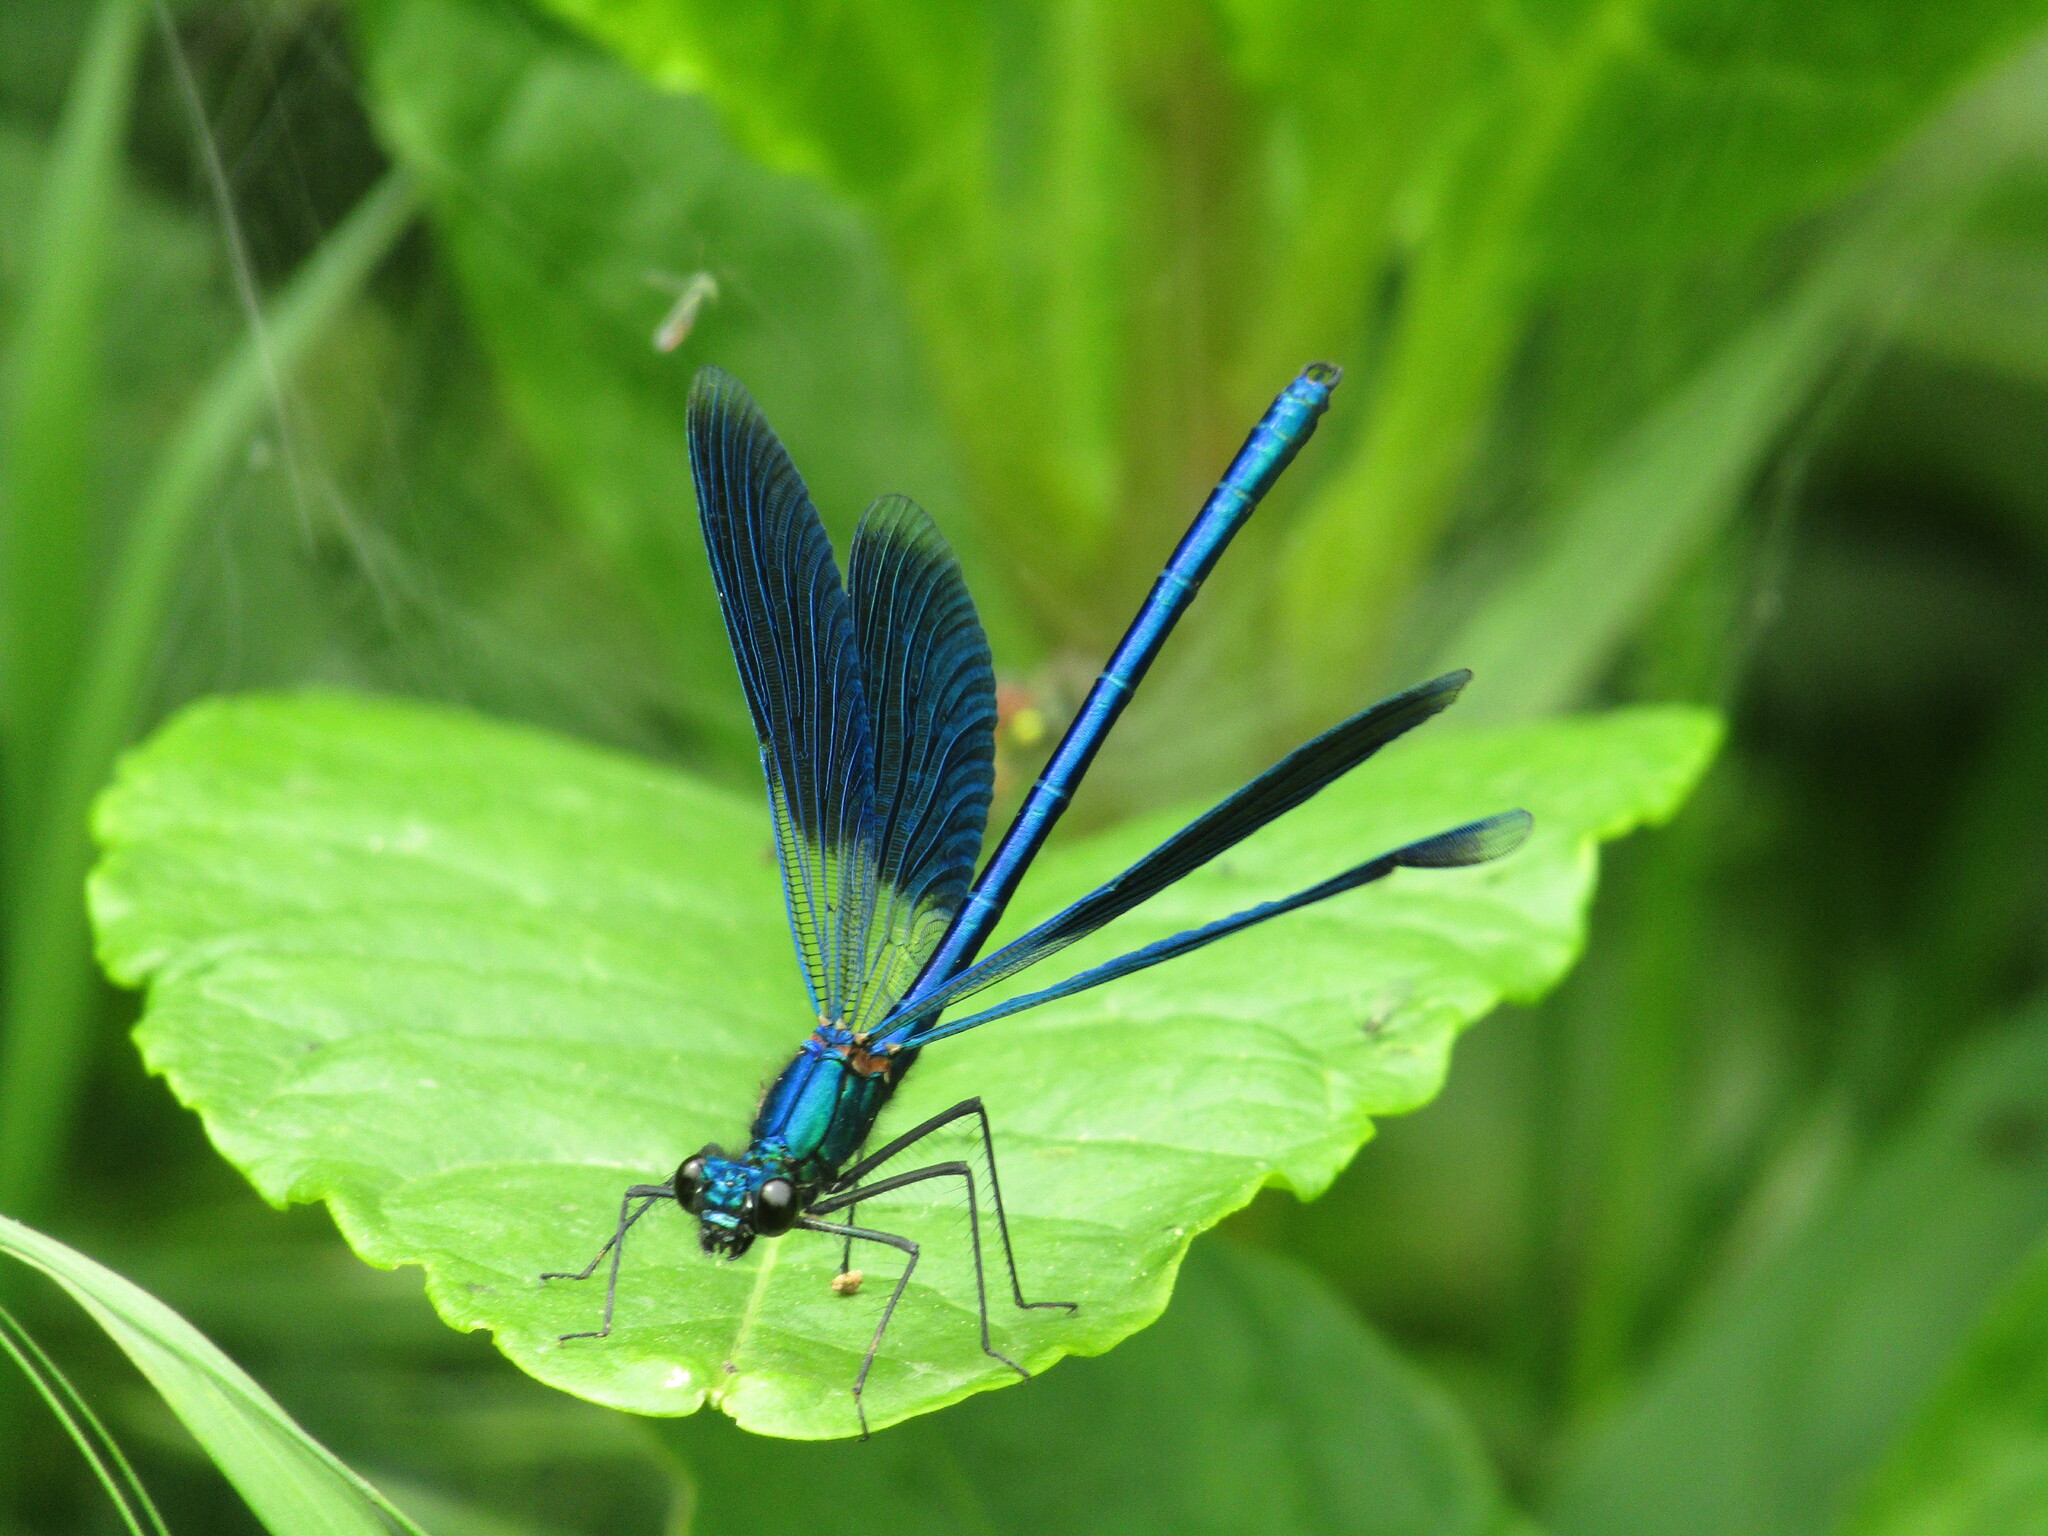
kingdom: Animalia
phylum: Arthropoda
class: Insecta
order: Odonata
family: Calopterygidae
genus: Calopteryx
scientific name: Calopteryx splendens
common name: Banded demoiselle
